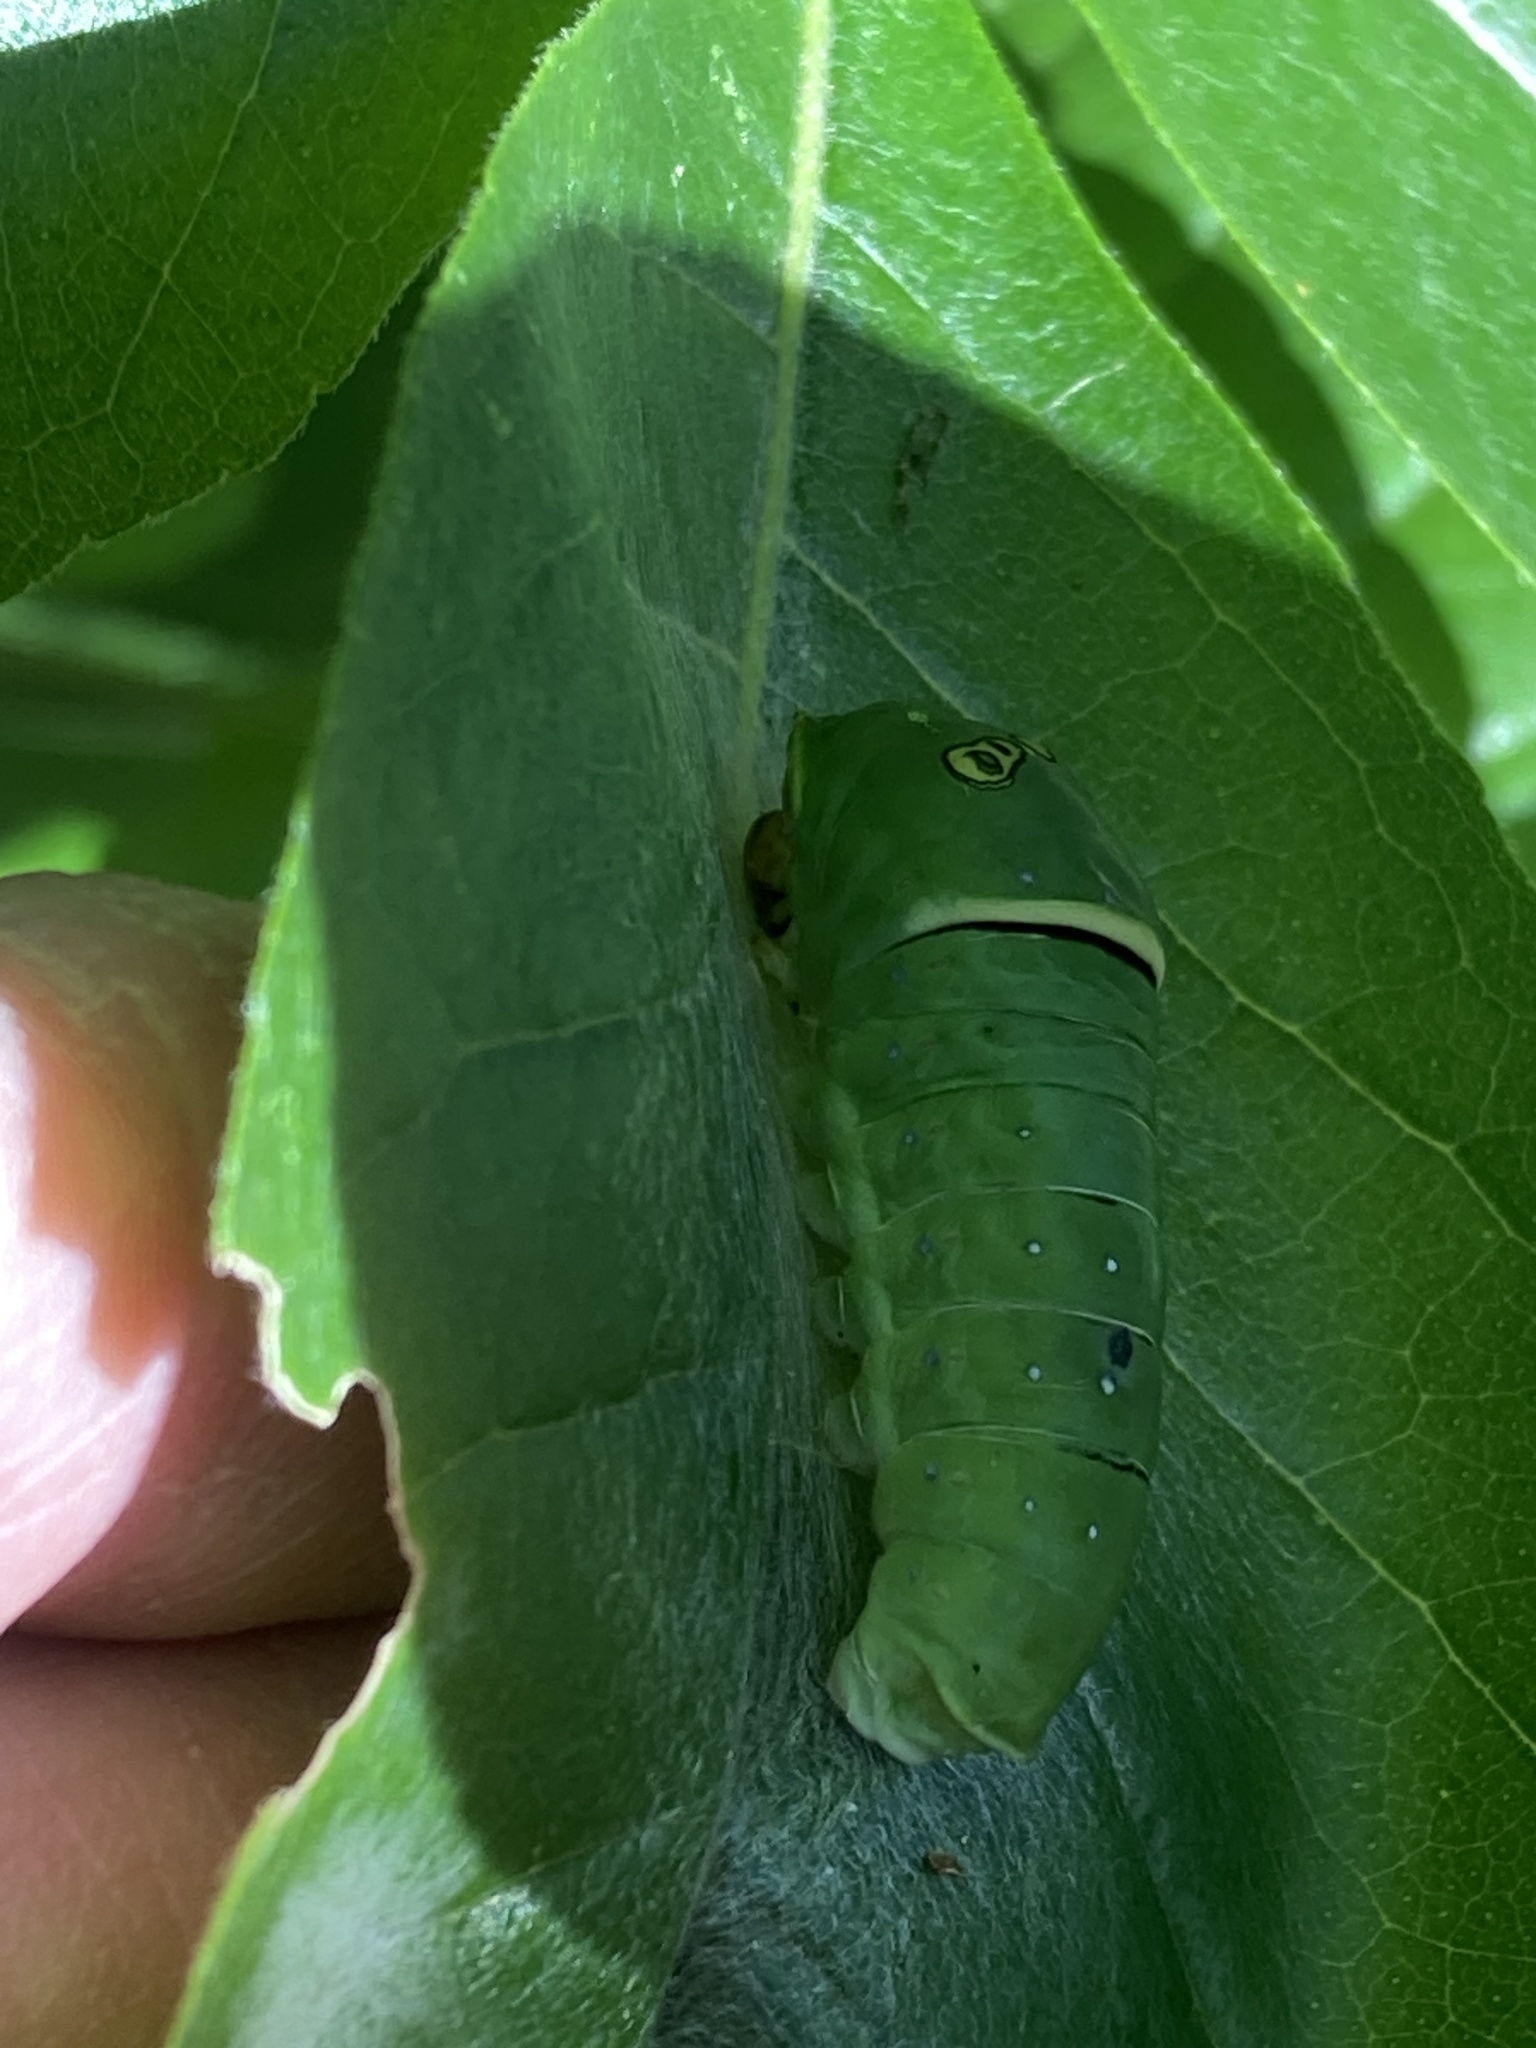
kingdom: Animalia
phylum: Arthropoda
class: Insecta
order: Lepidoptera
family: Papilionidae
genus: Papilio
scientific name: Papilio multicaudata
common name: Two-tailed tiger swallowtail
